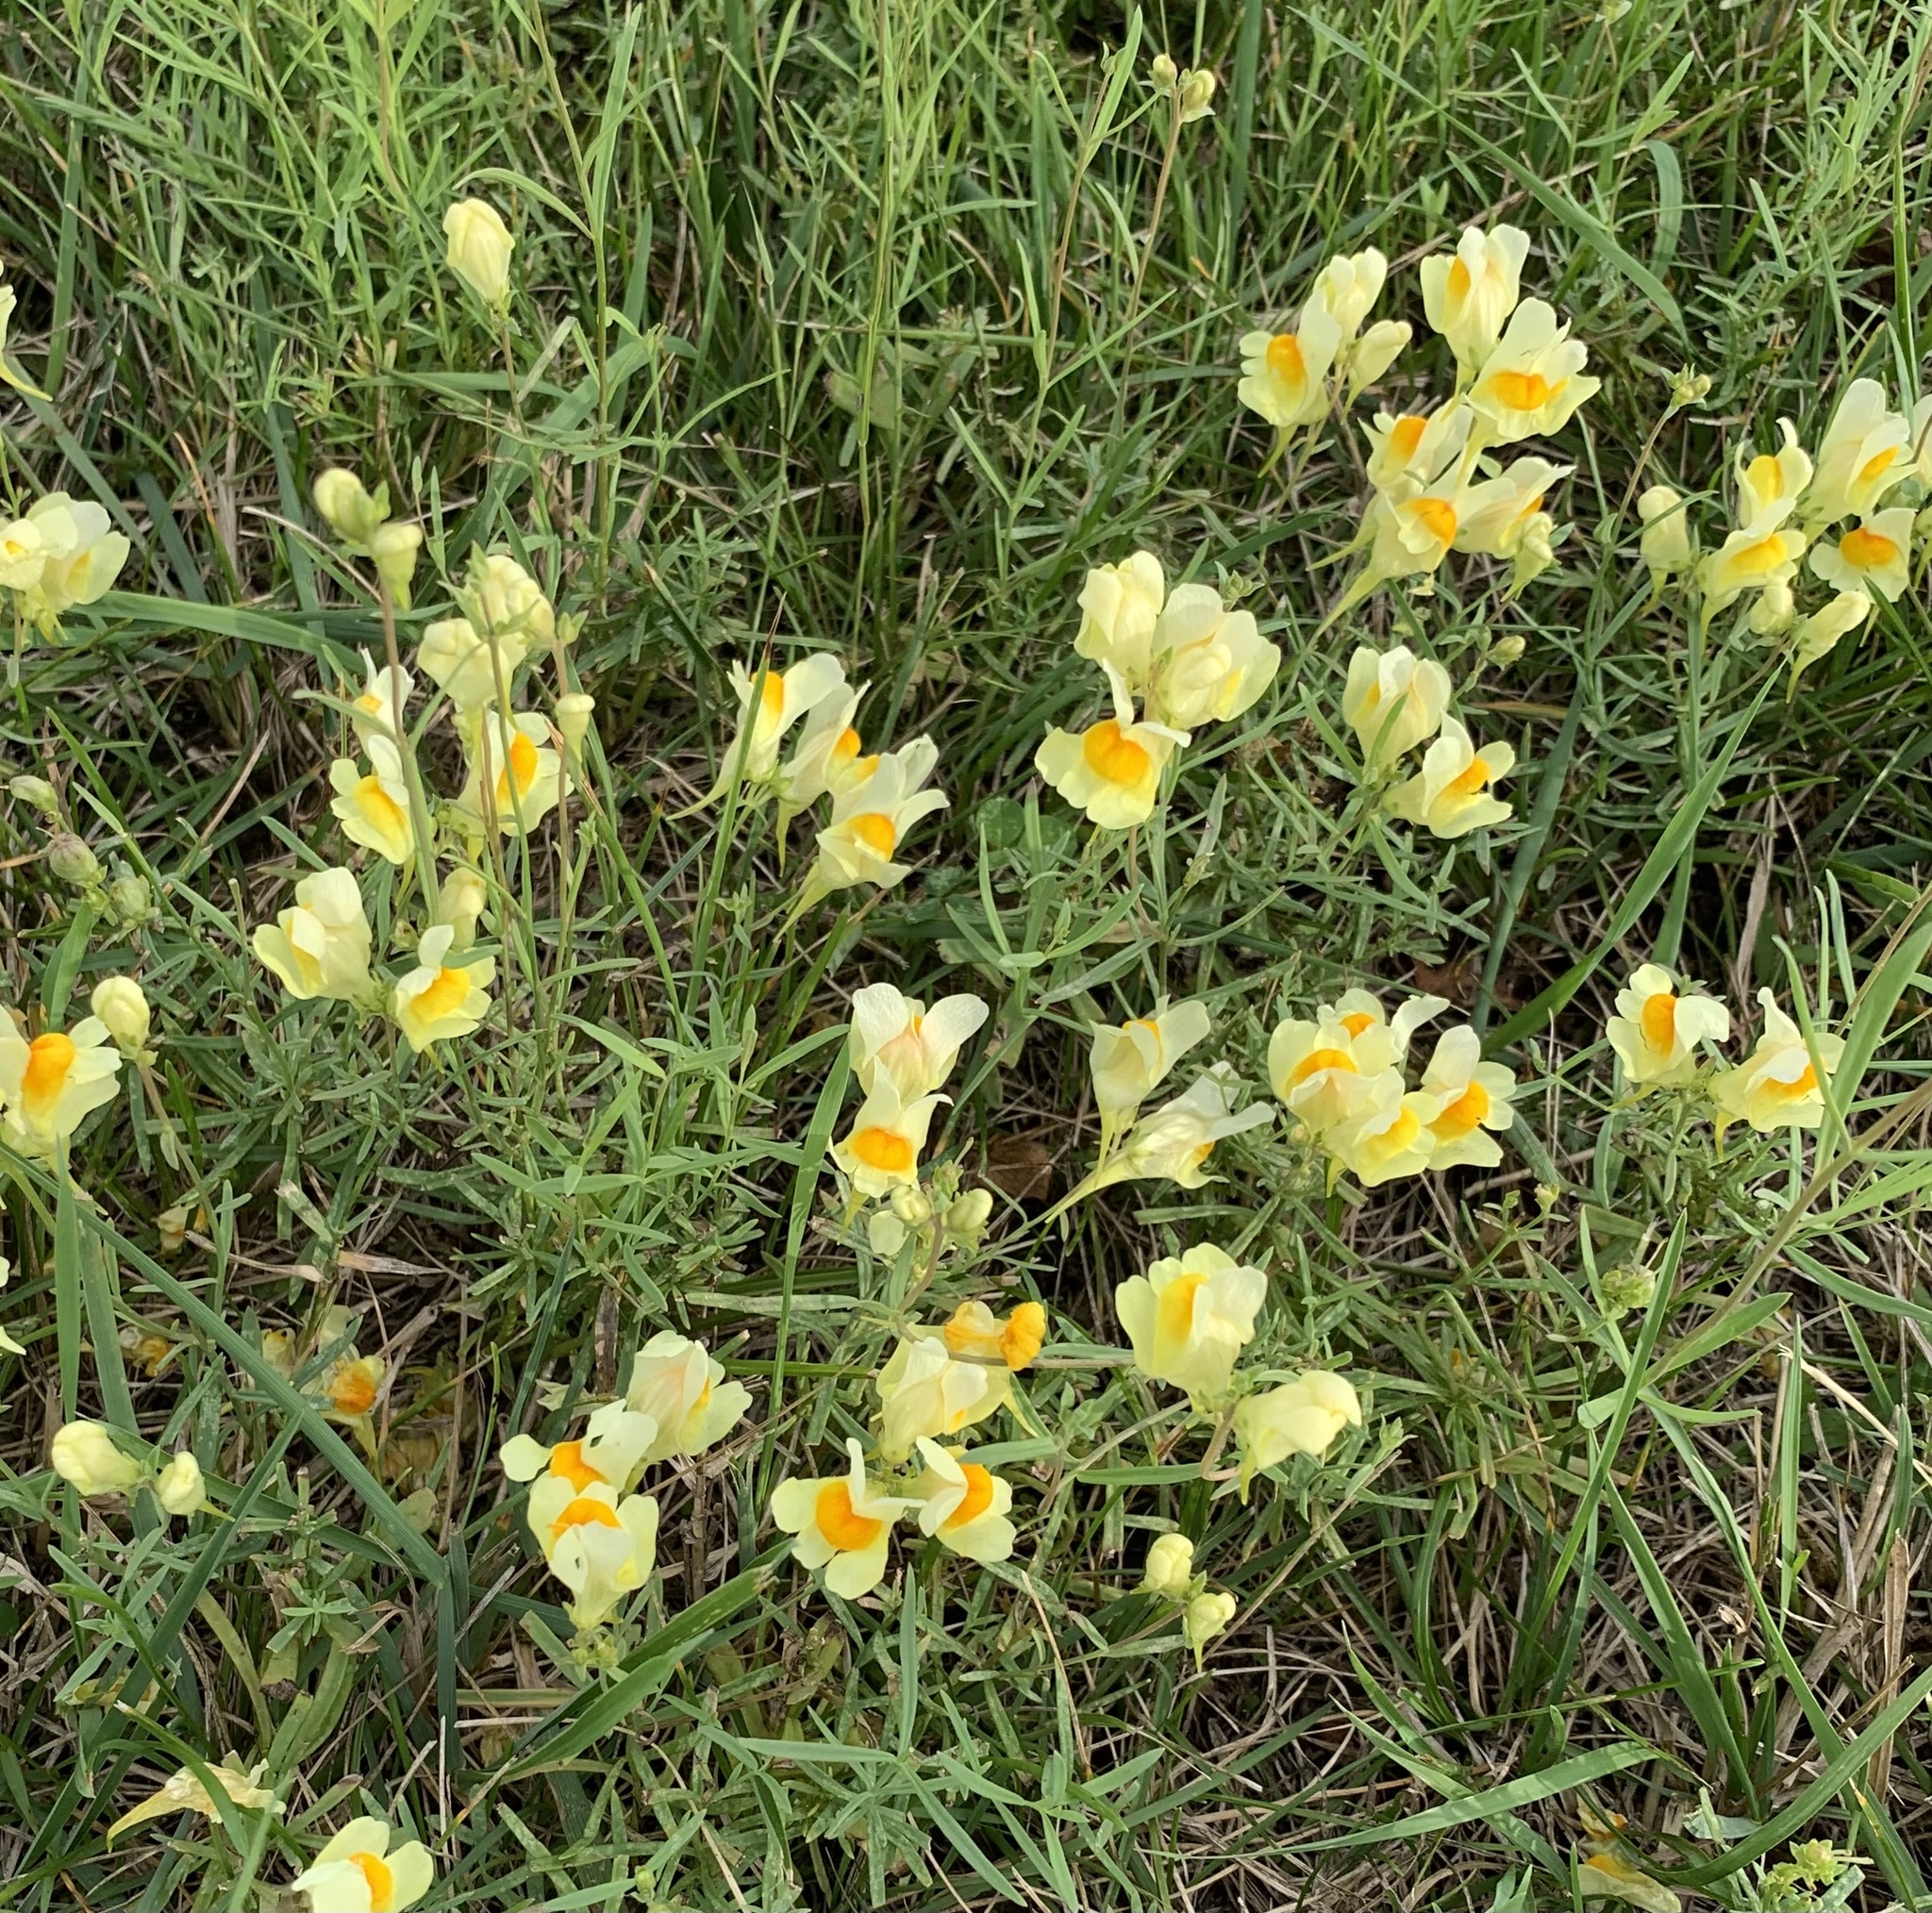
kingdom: Plantae
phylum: Tracheophyta
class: Magnoliopsida
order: Lamiales
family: Plantaginaceae
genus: Linaria
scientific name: Linaria vulgaris
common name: Butter and eggs
